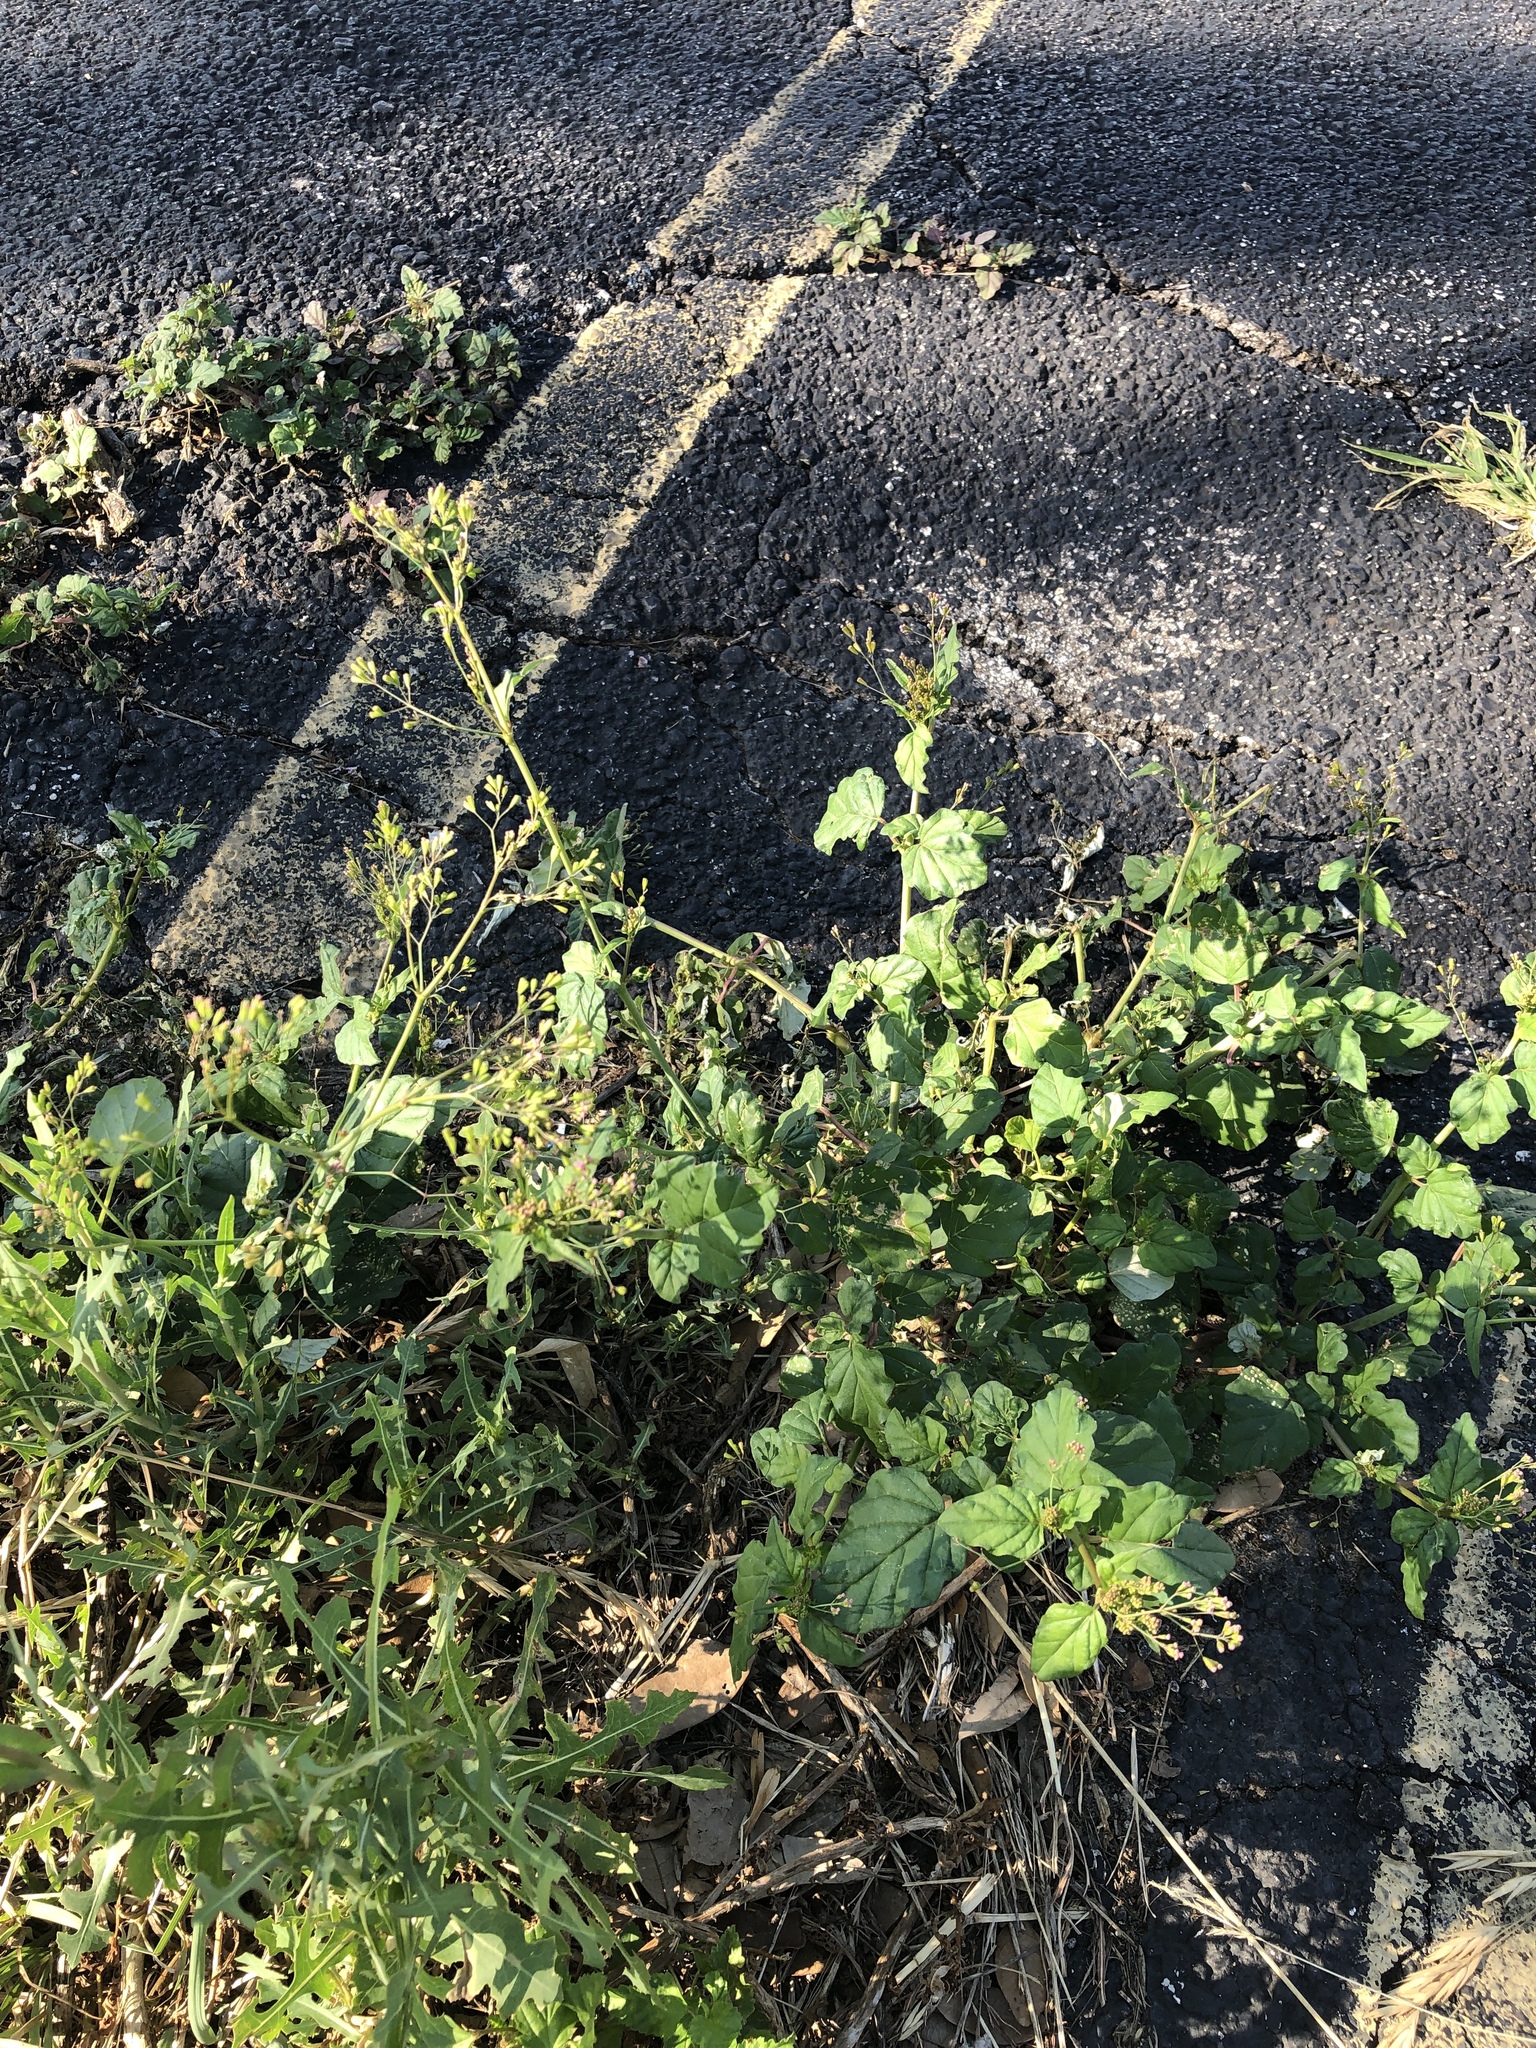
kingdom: Plantae
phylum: Tracheophyta
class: Magnoliopsida
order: Caryophyllales
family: Nyctaginaceae
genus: Boerhavia
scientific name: Boerhavia erecta
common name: Erect spiderling
